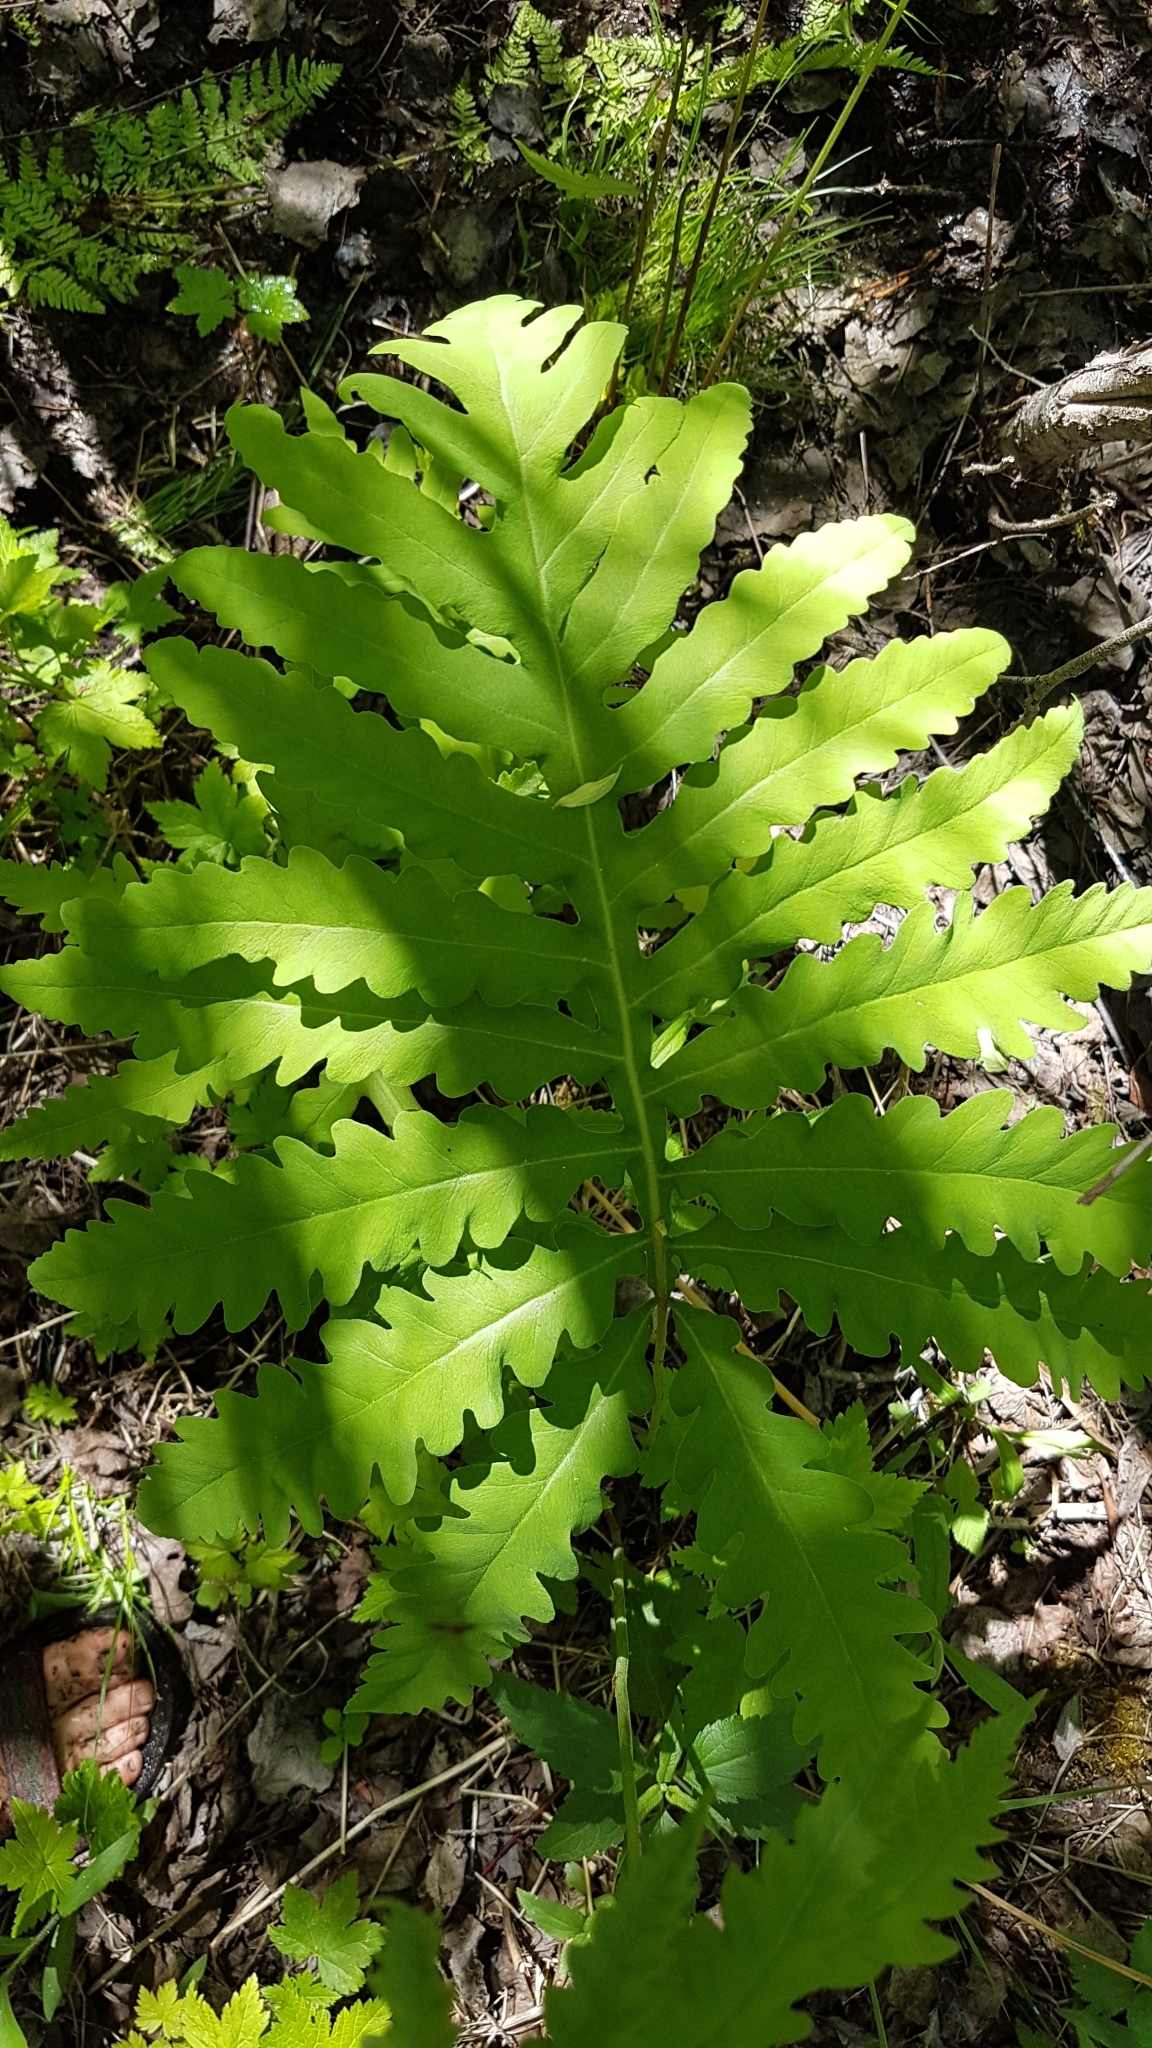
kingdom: Plantae
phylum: Tracheophyta
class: Polypodiopsida
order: Polypodiales
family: Onocleaceae
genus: Onoclea
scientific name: Onoclea sensibilis
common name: Sensitive fern
